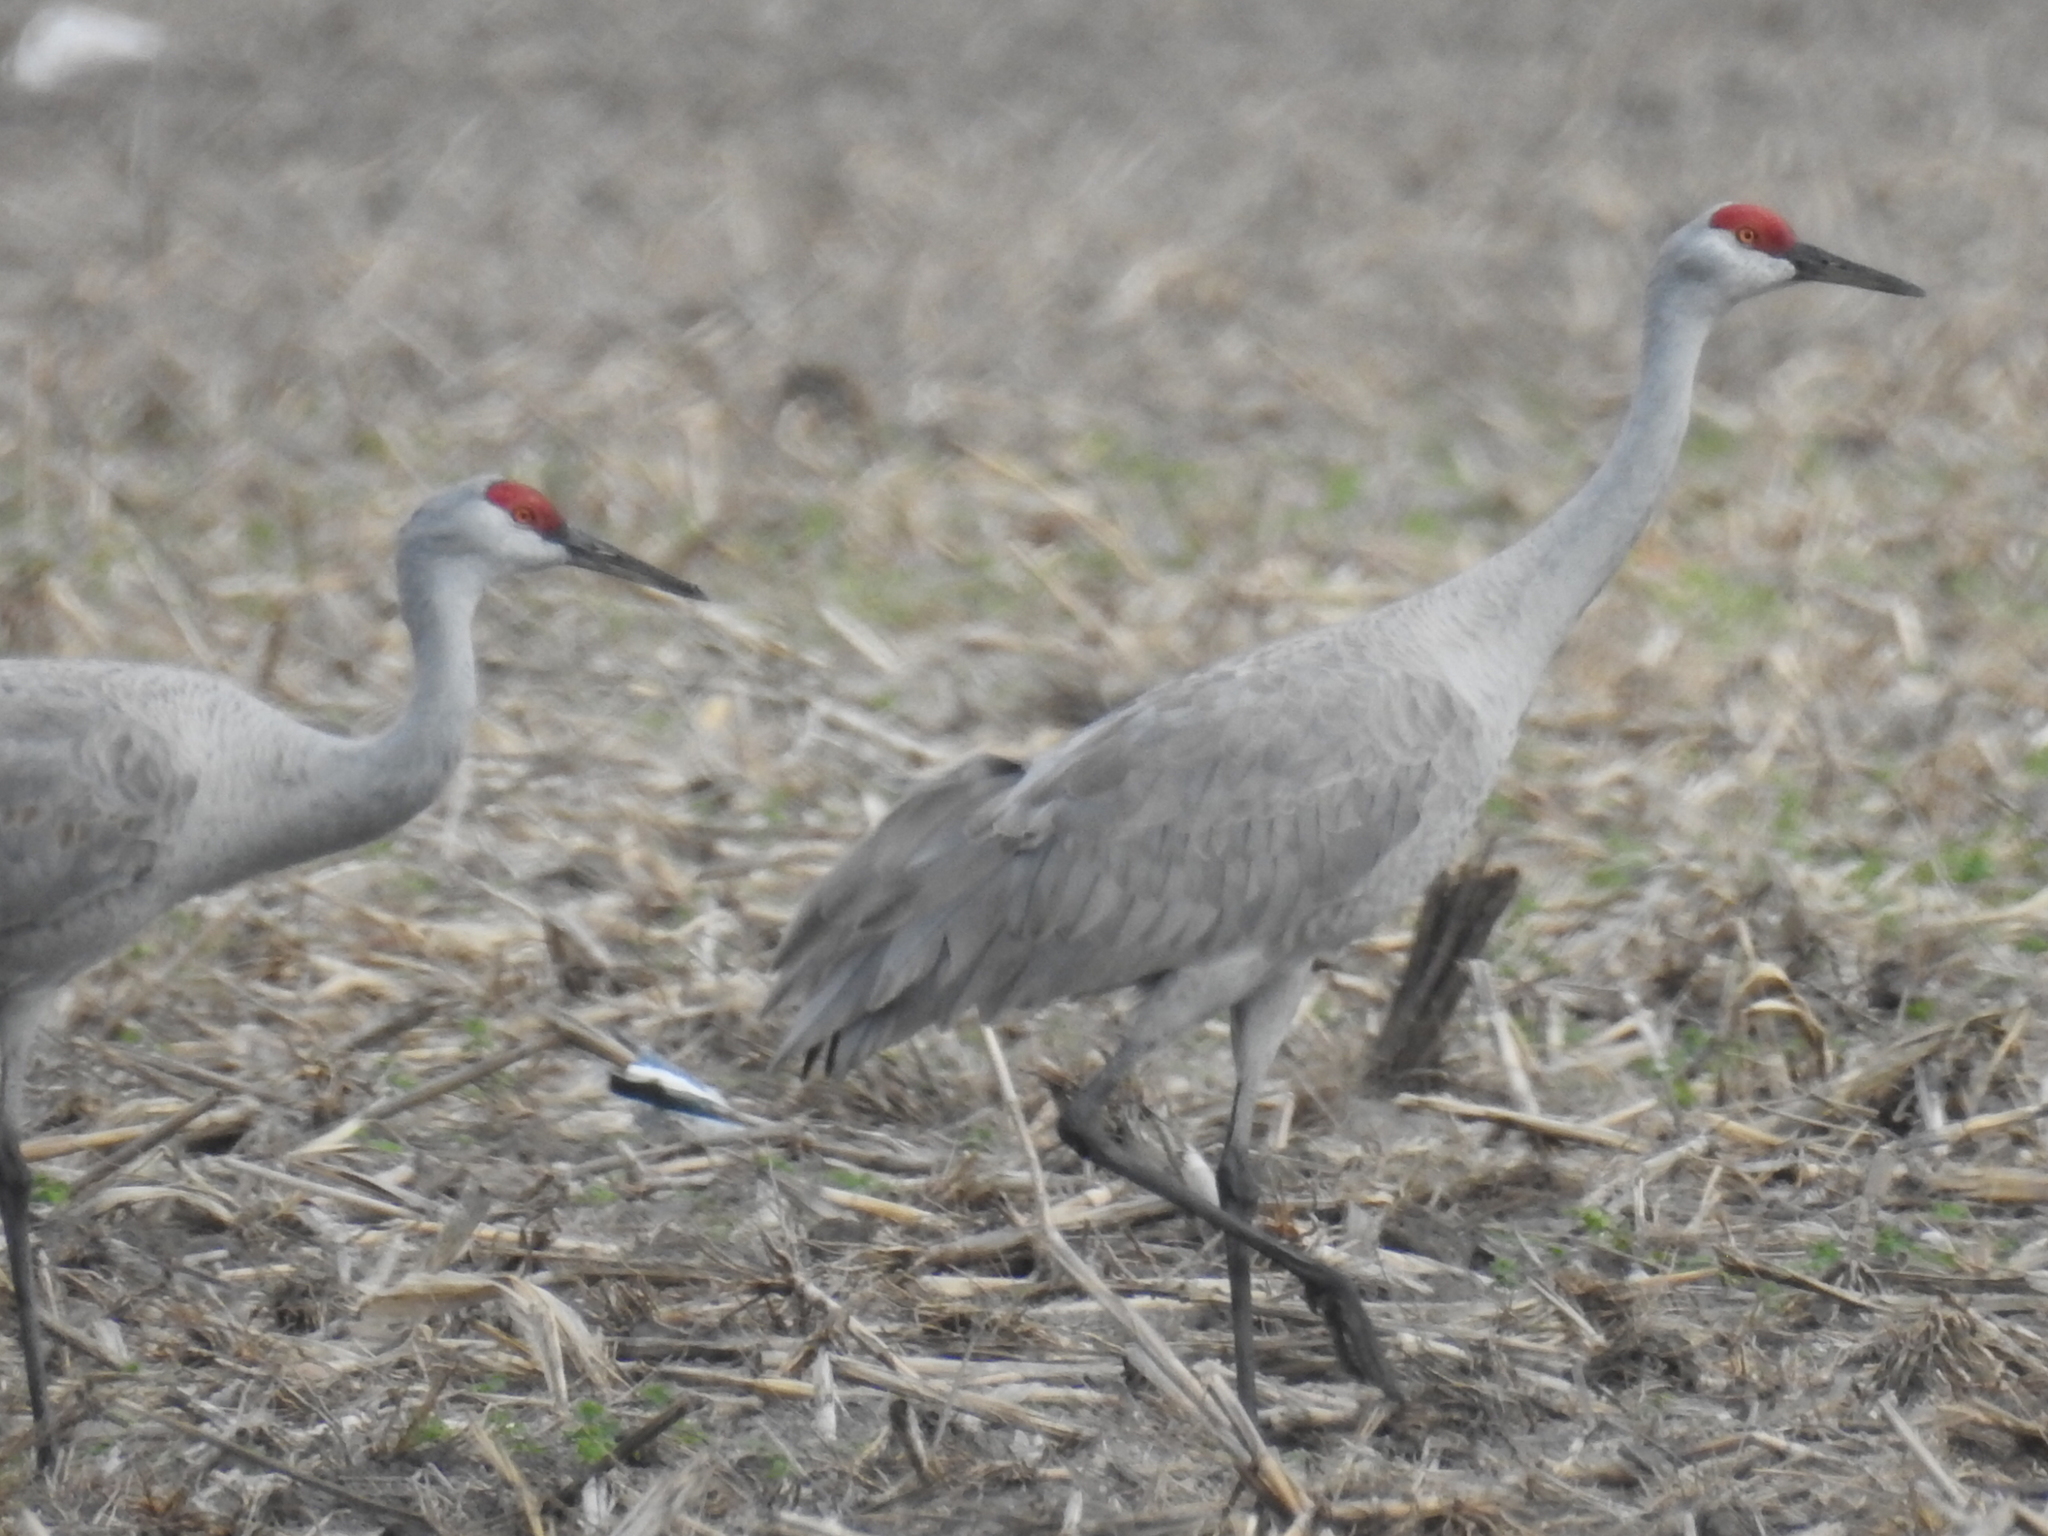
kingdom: Animalia
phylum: Chordata
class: Aves
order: Gruiformes
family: Gruidae
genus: Grus
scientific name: Grus canadensis
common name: Sandhill crane
